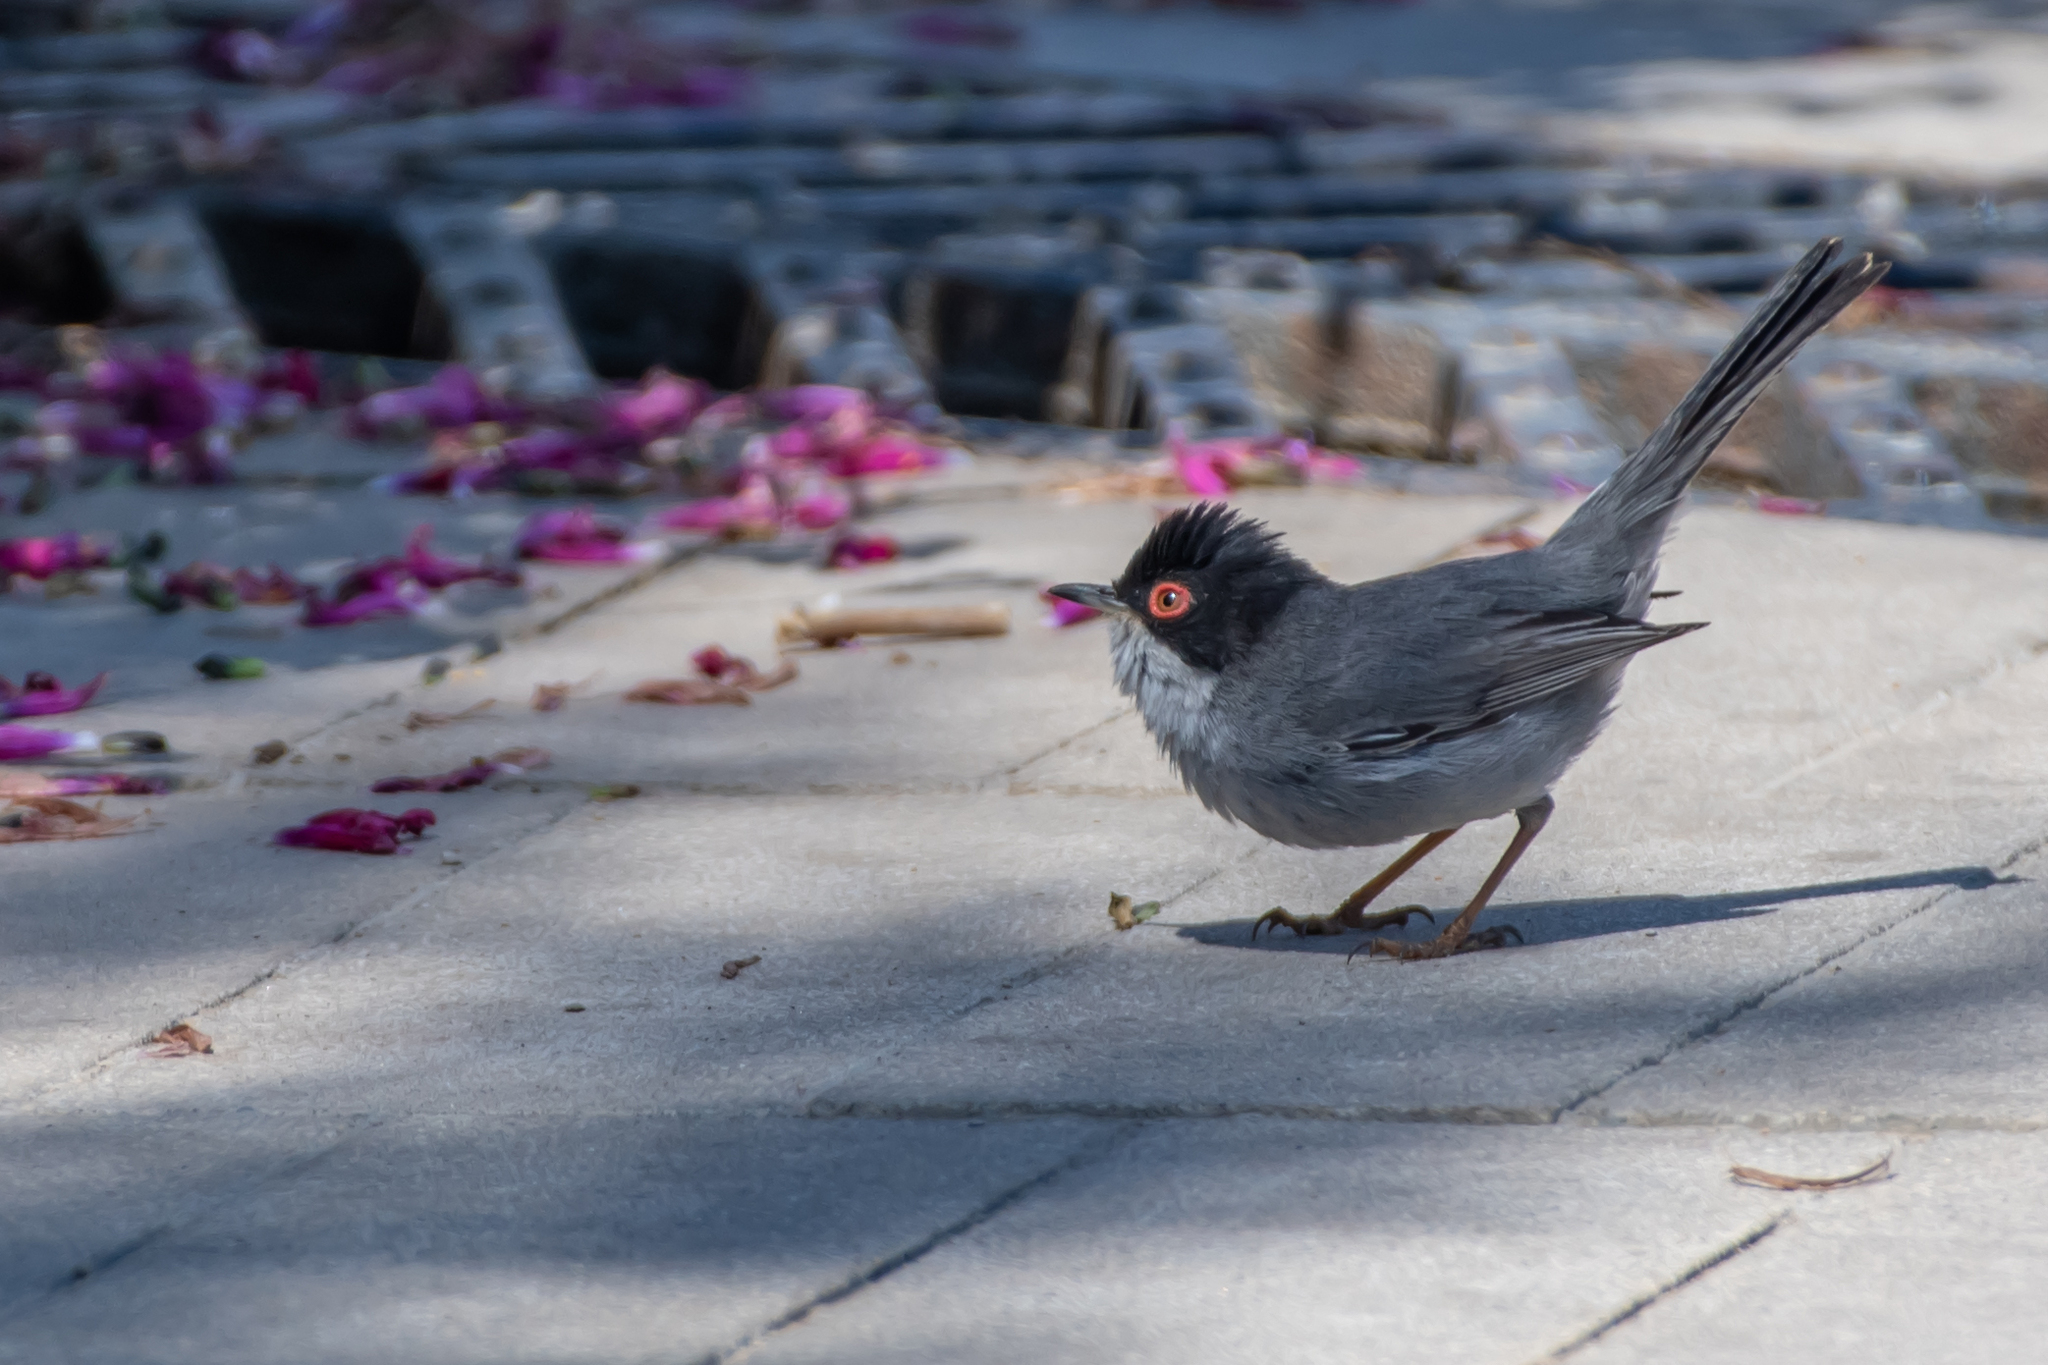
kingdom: Animalia
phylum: Chordata
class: Aves
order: Passeriformes
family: Sylviidae
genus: Curruca
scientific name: Curruca melanocephala
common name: Sardinian warbler
